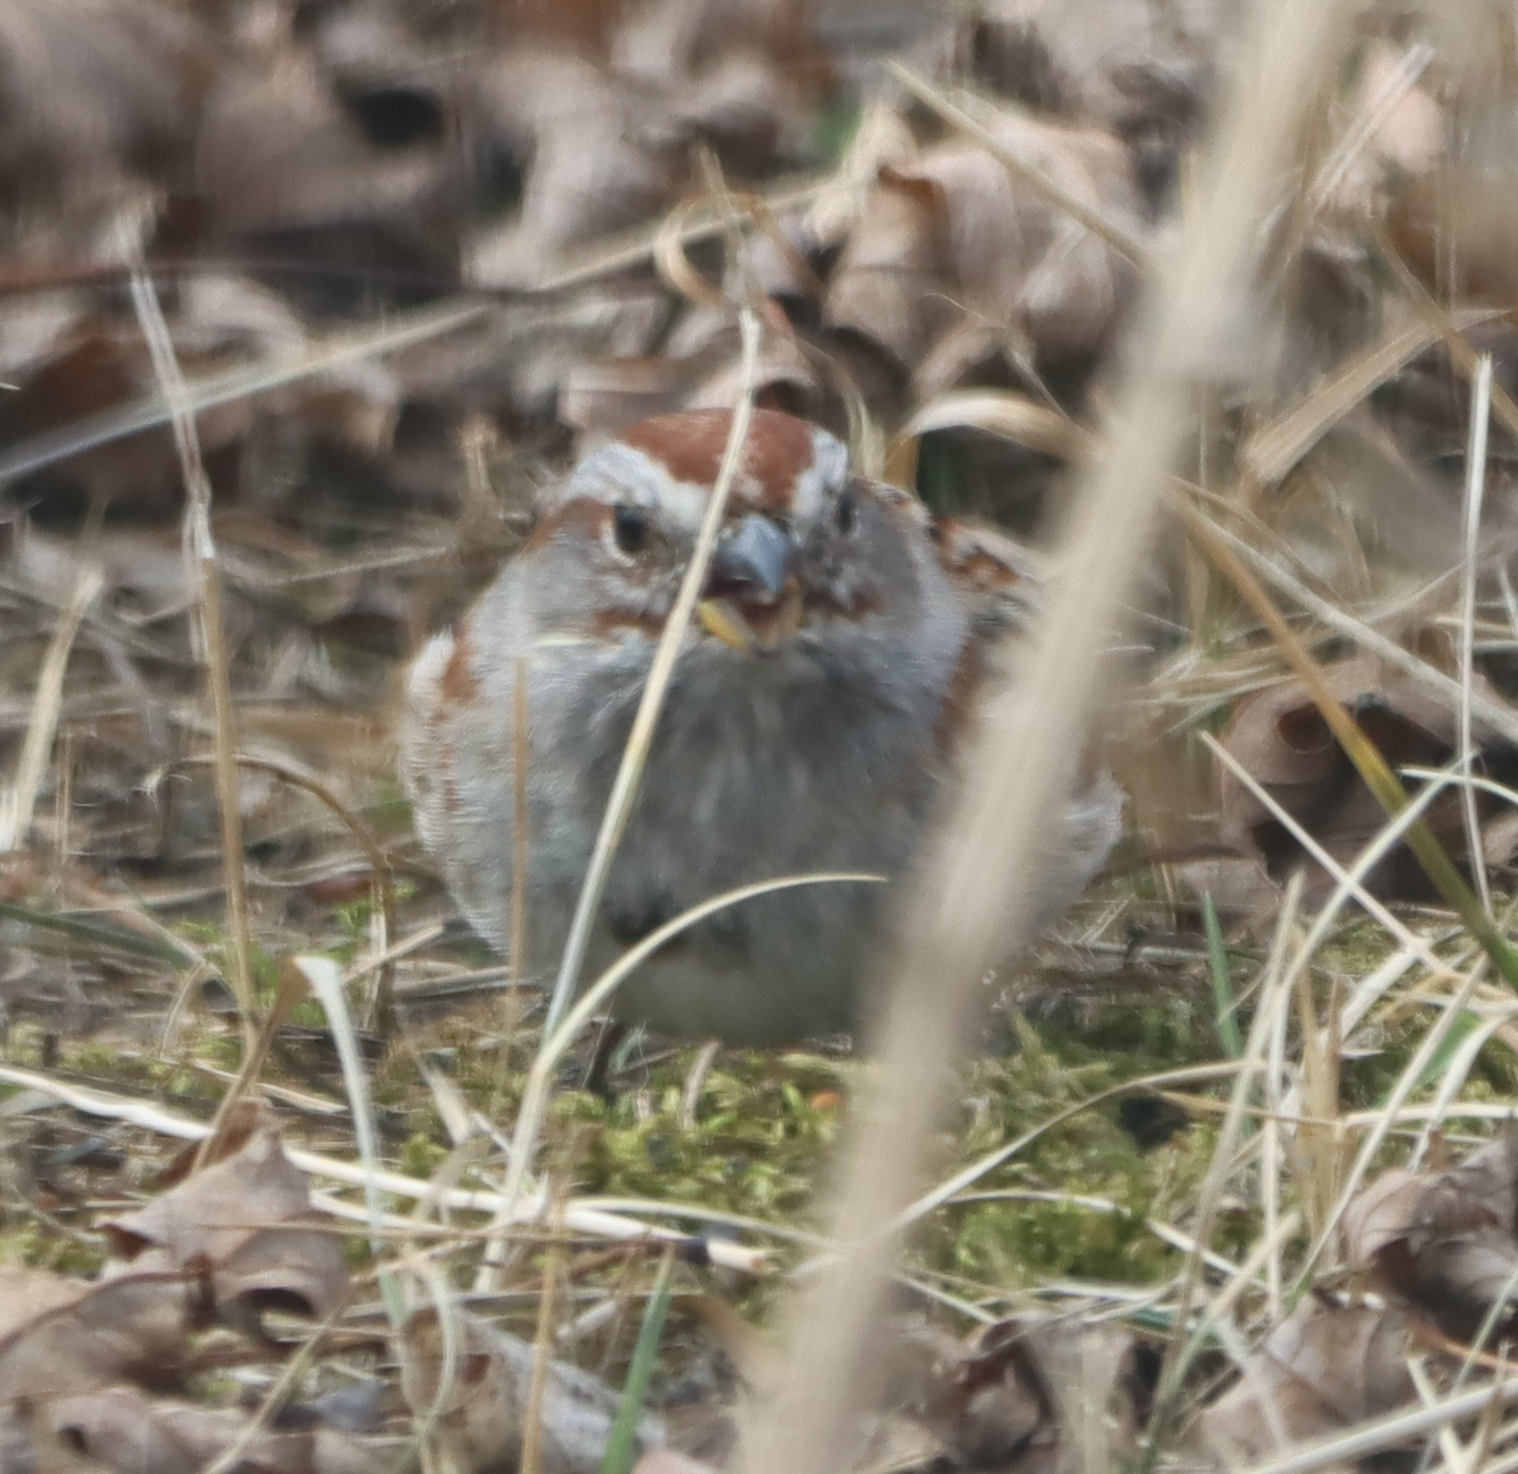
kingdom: Animalia
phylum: Chordata
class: Aves
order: Passeriformes
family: Passerellidae
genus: Spizelloides
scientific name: Spizelloides arborea
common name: American tree sparrow
